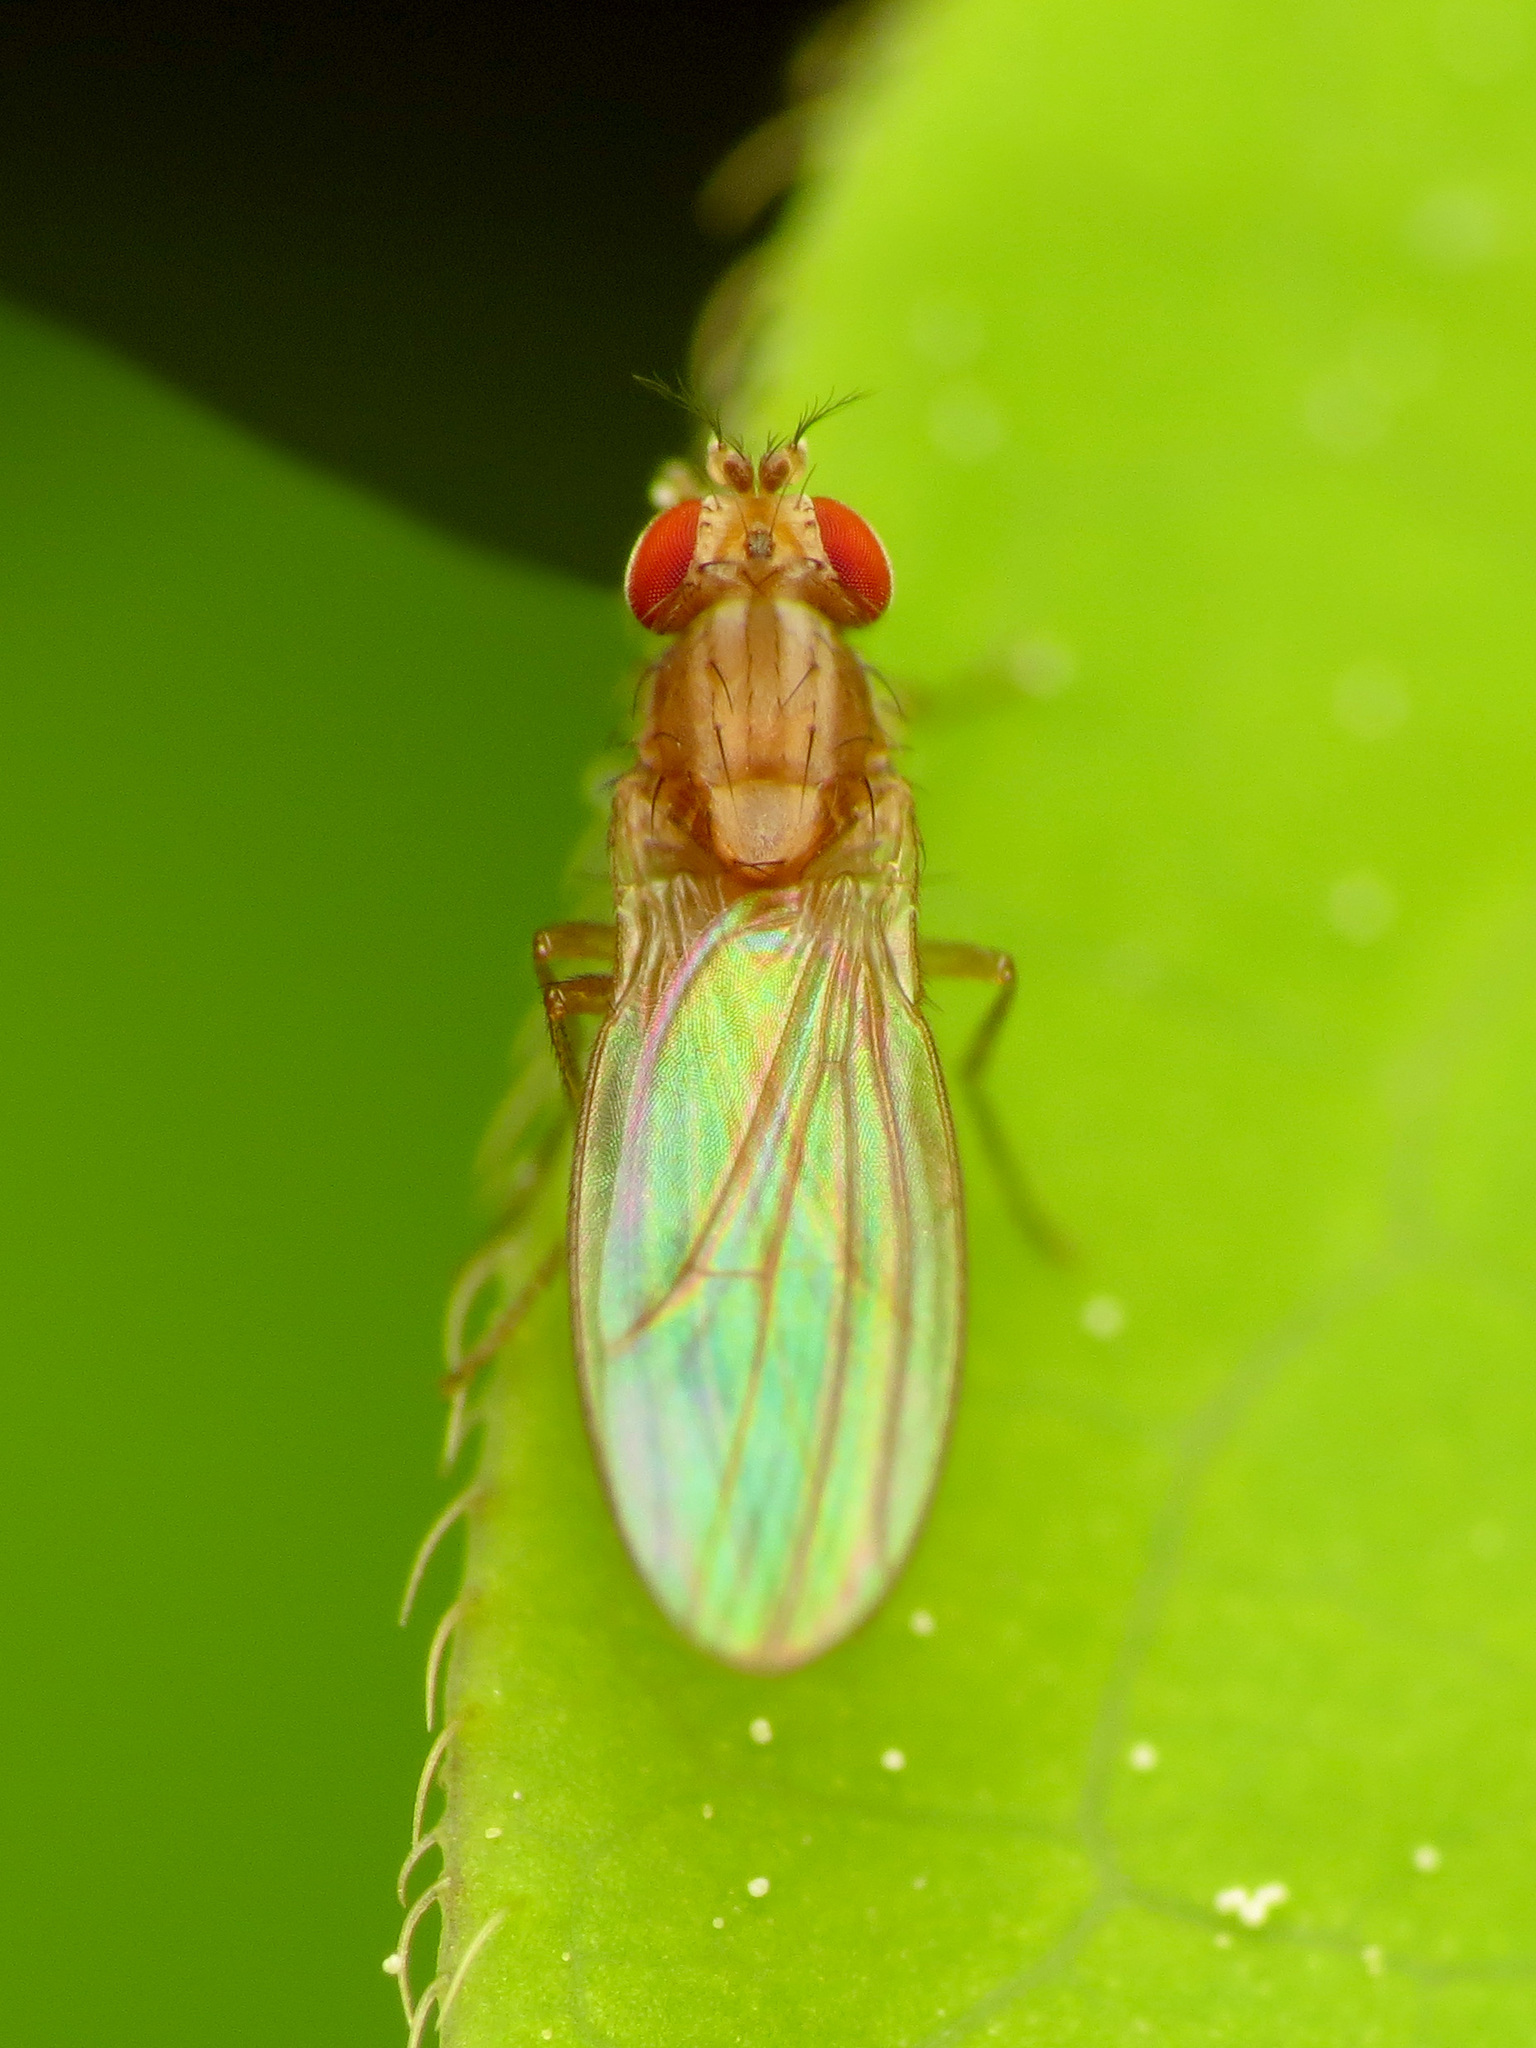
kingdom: Animalia
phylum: Arthropoda
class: Insecta
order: Diptera
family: Drosophilidae
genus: Scaptomyza
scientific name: Scaptomyza wheeleri
